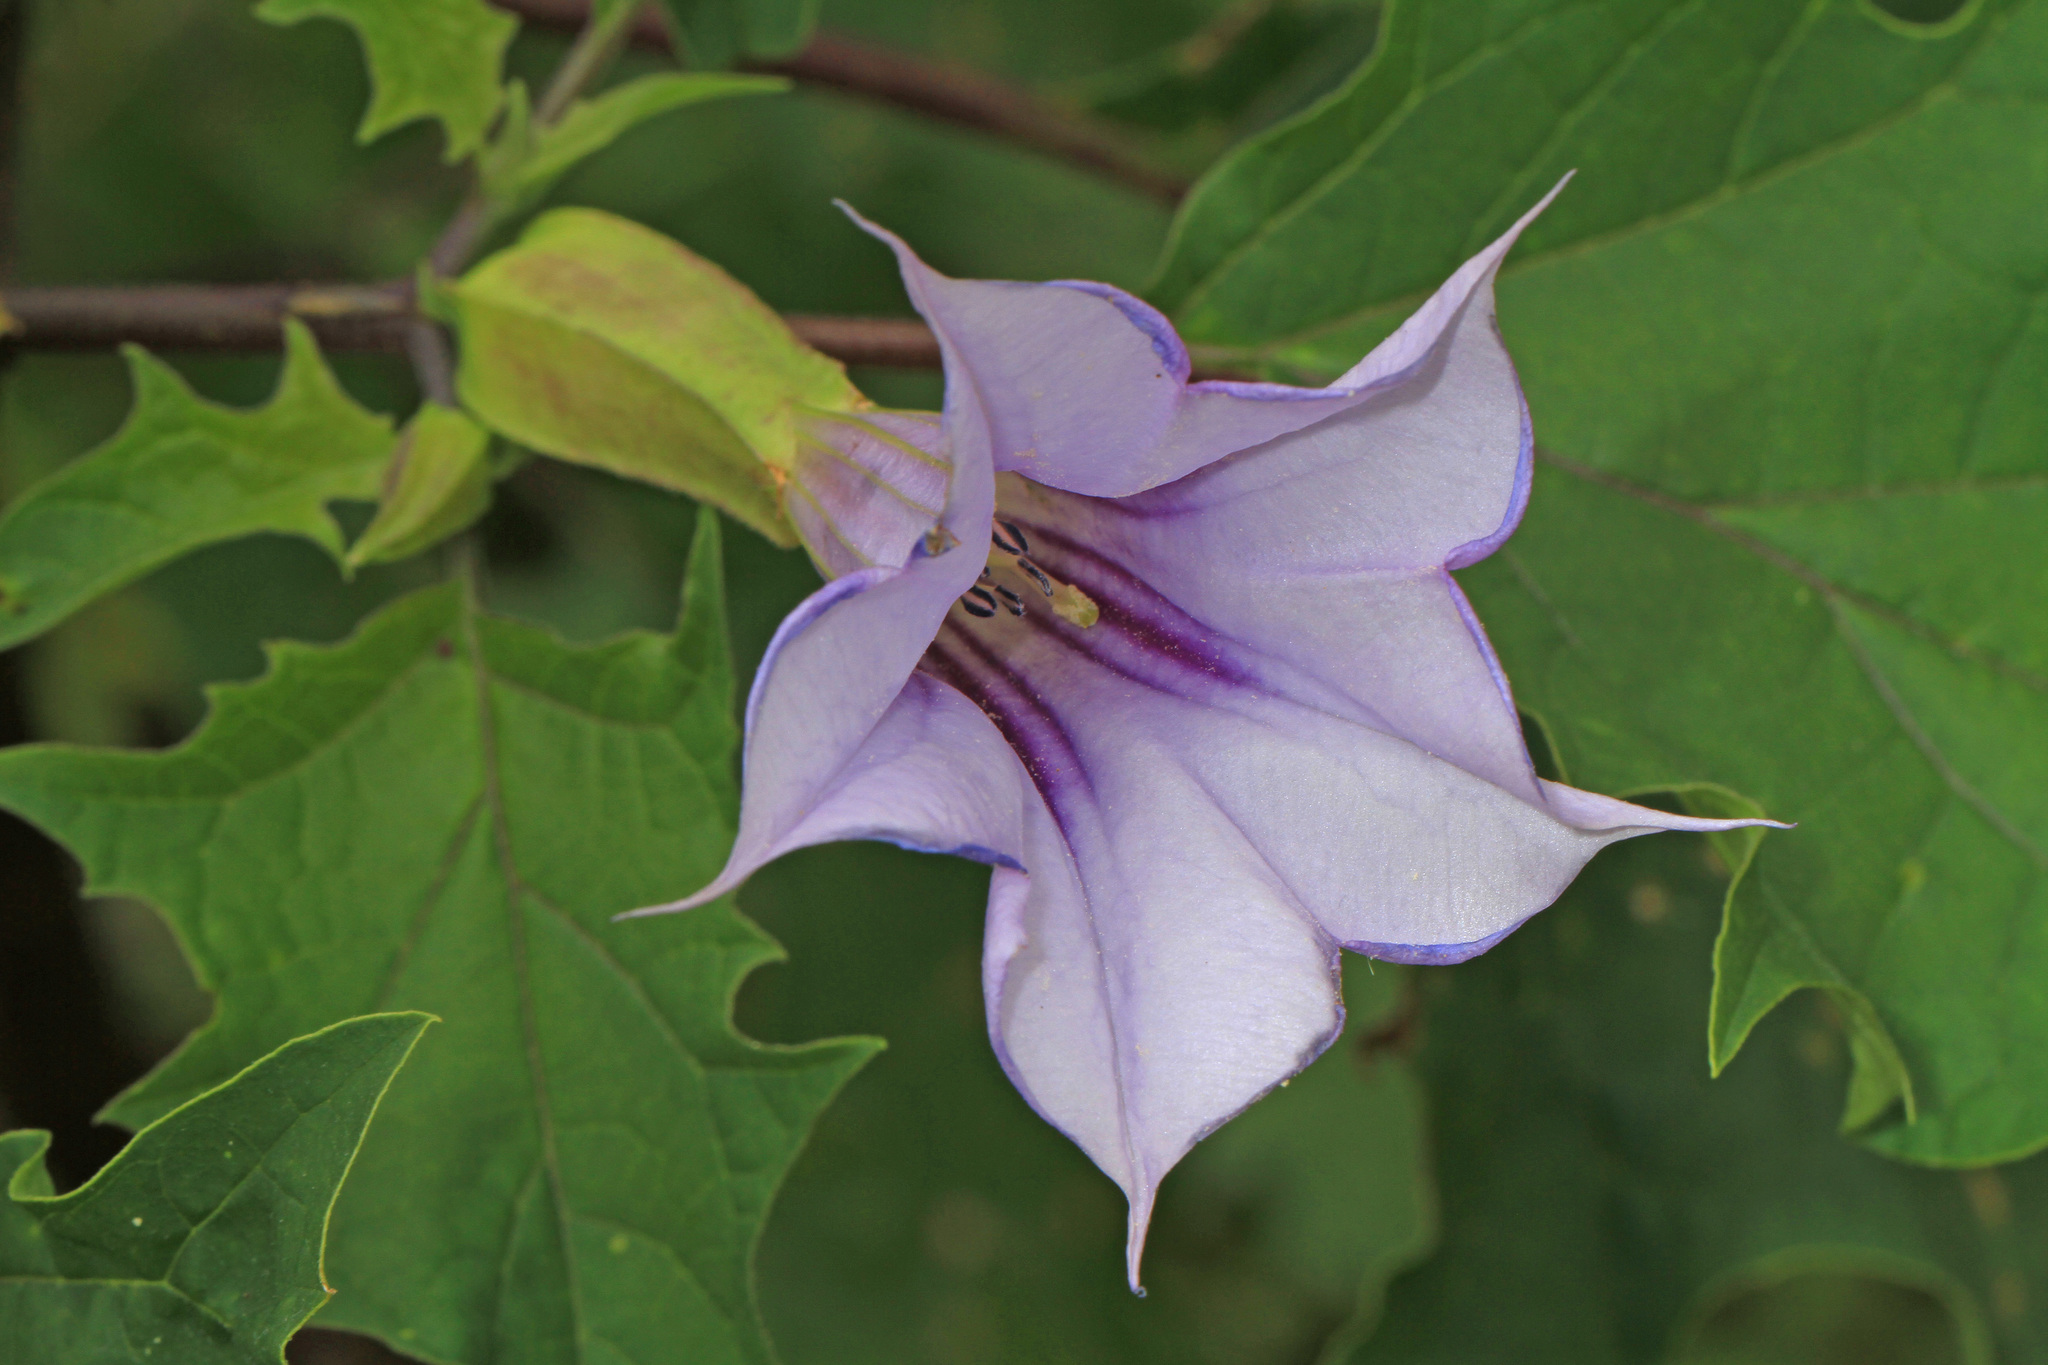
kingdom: Plantae
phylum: Tracheophyta
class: Magnoliopsida
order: Solanales
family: Solanaceae
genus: Datura
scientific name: Datura stramonium
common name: Thorn-apple
